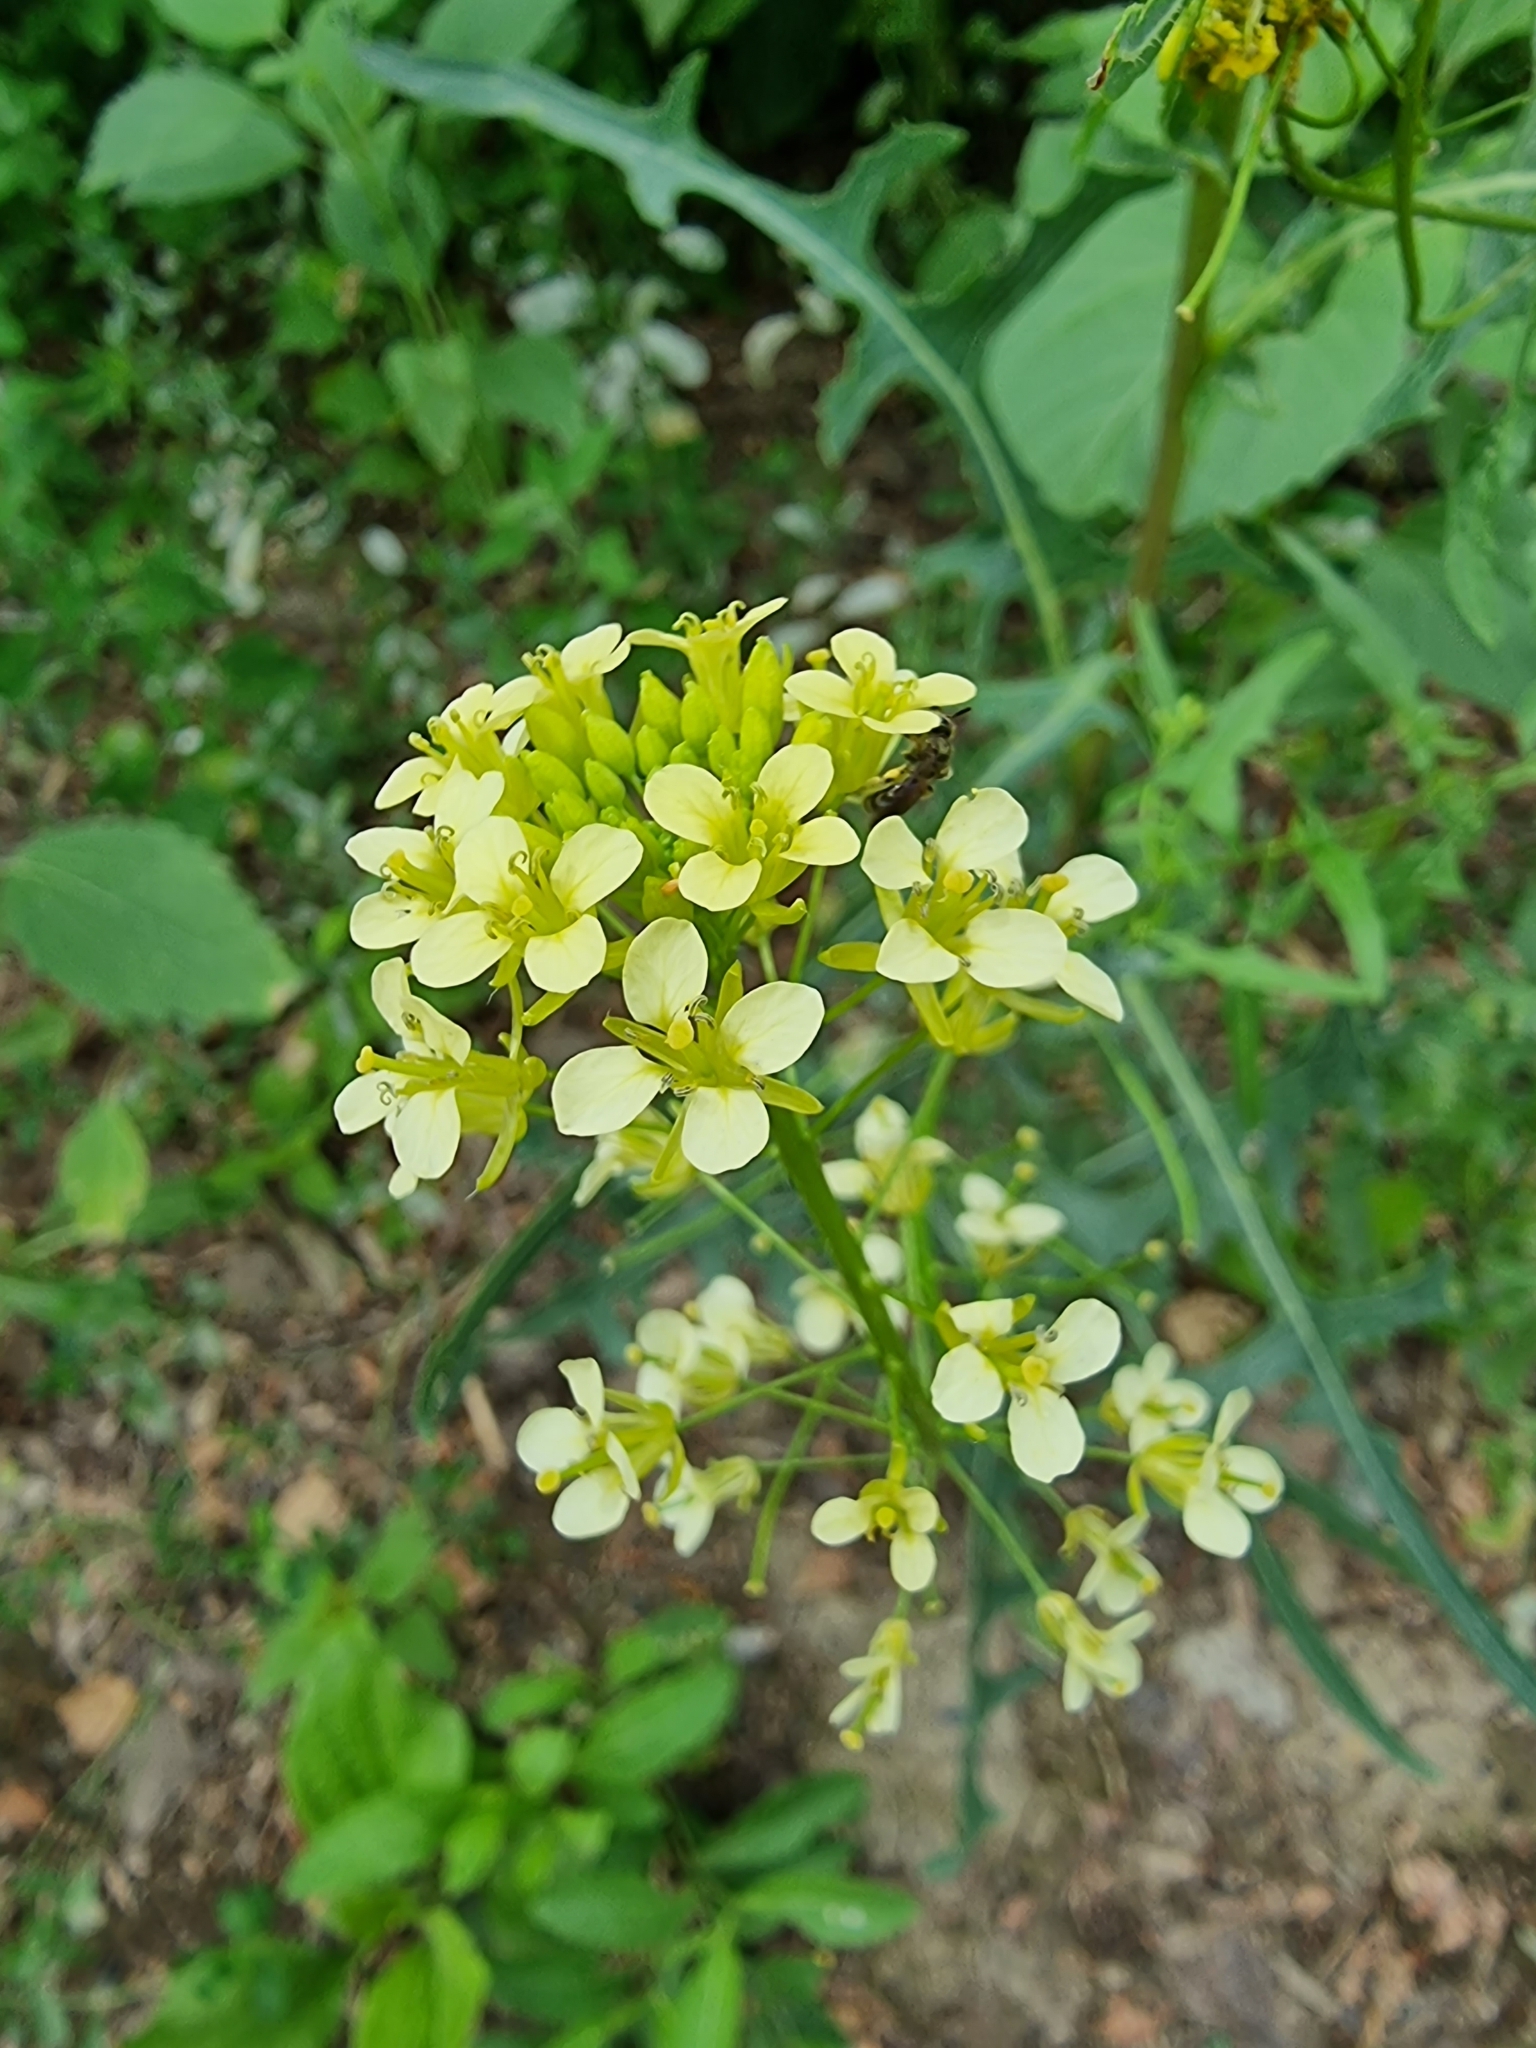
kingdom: Plantae
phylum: Tracheophyta
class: Magnoliopsida
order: Brassicales
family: Brassicaceae
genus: Sisymbrium
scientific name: Sisymbrium loeselii
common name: False london-rocket
